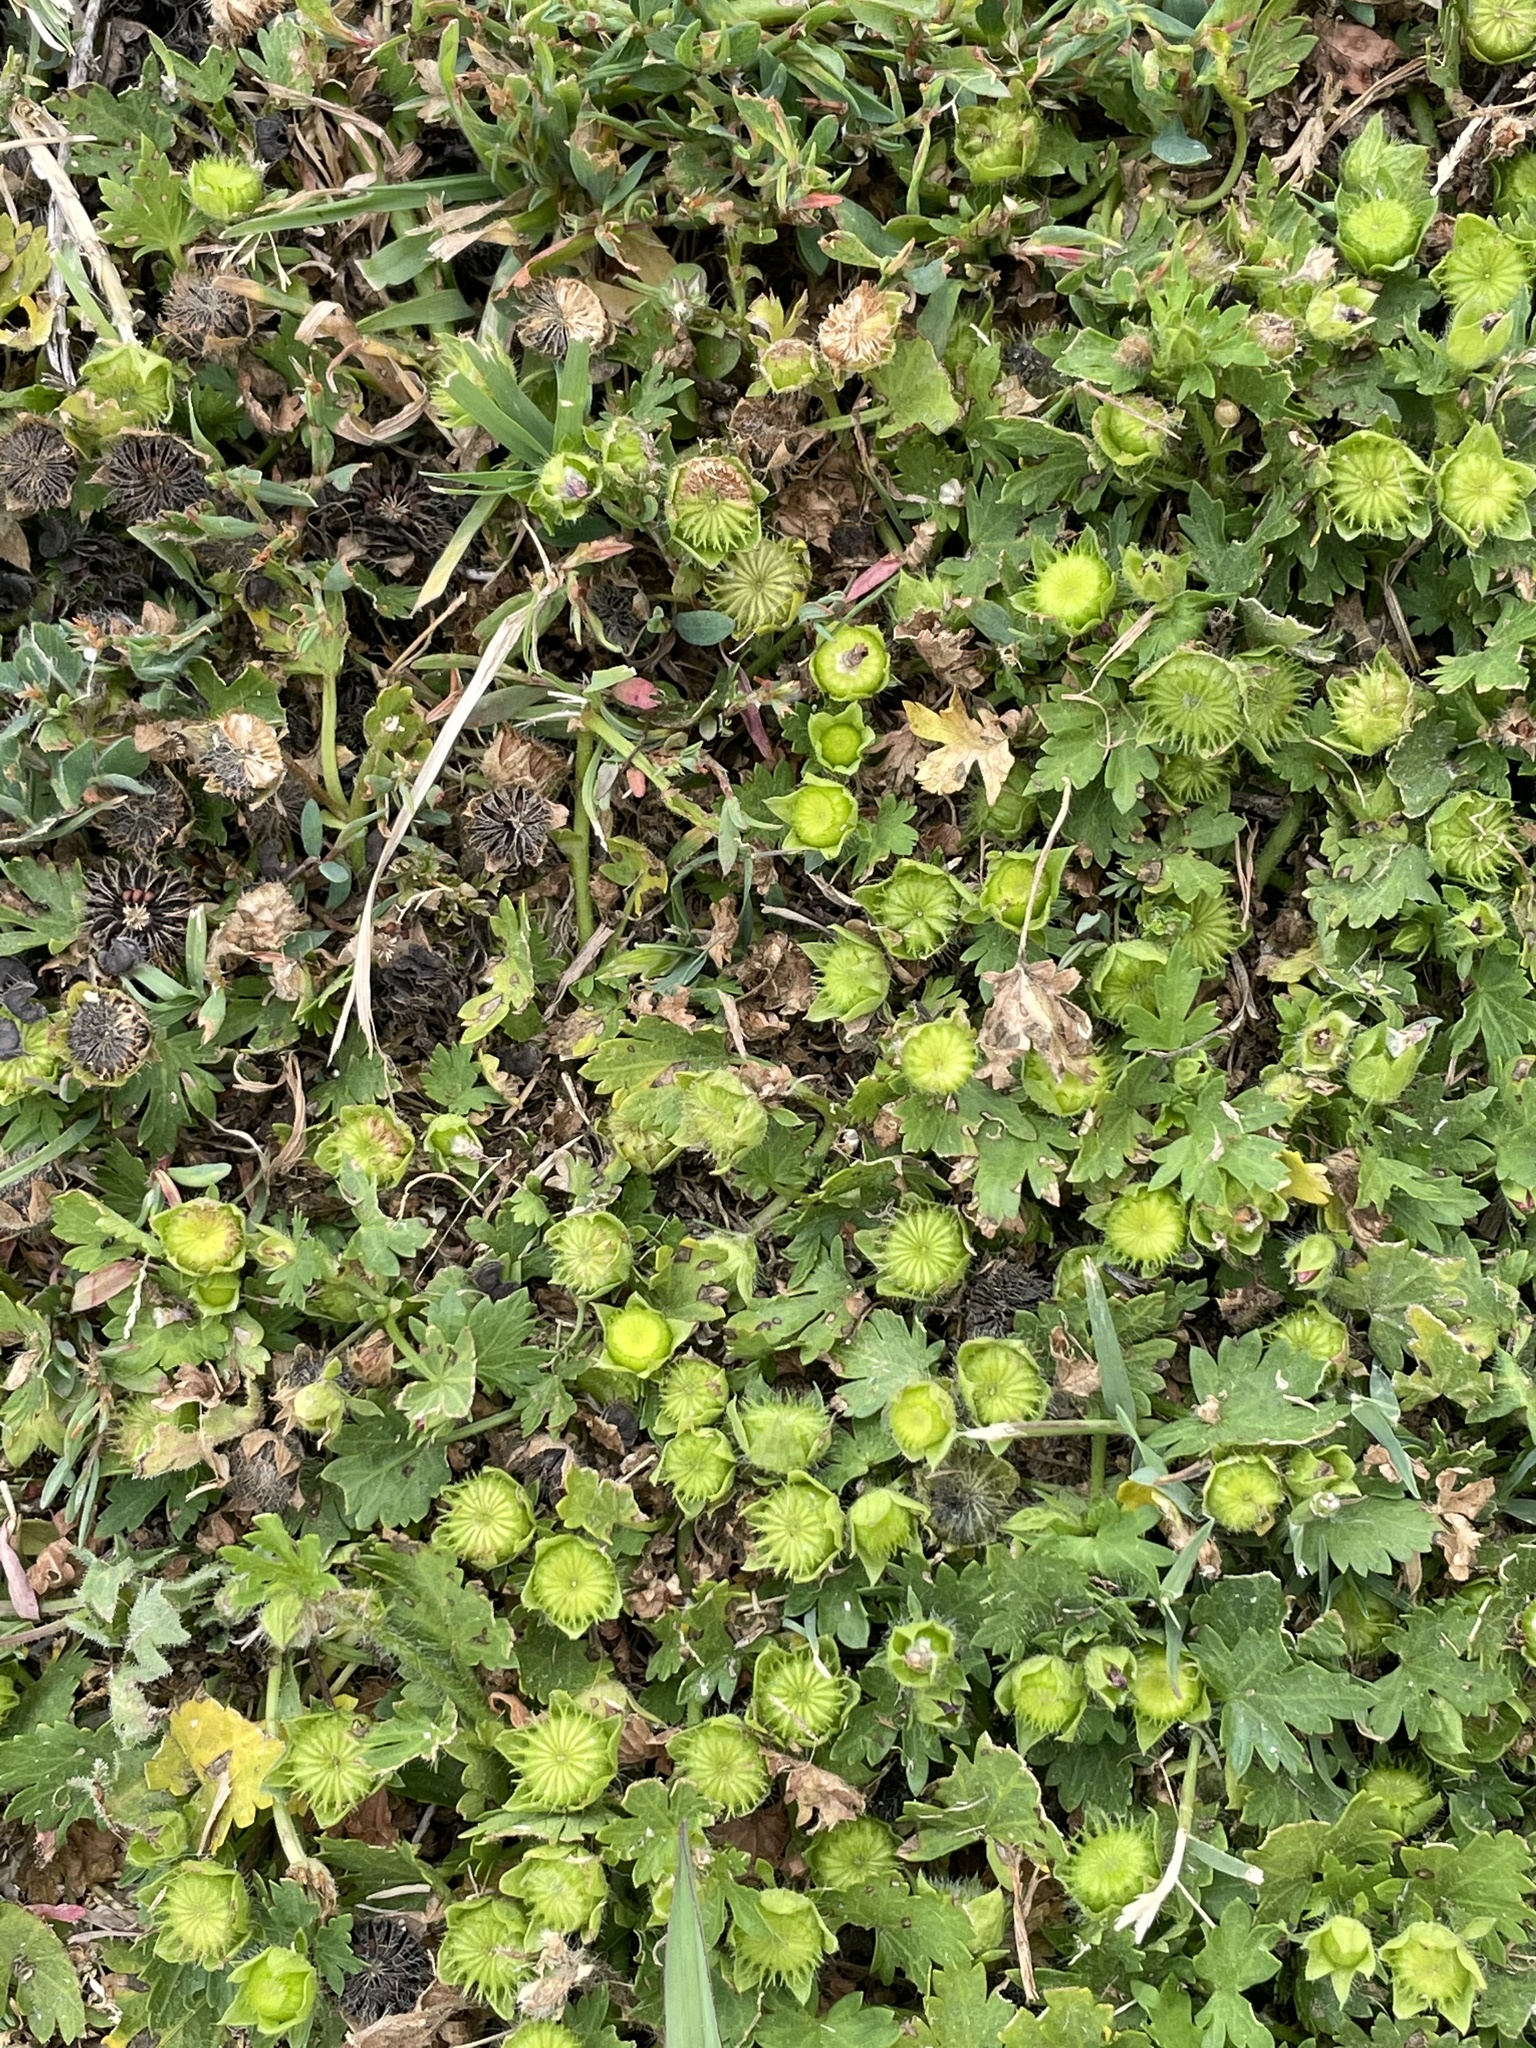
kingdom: Plantae
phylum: Tracheophyta
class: Magnoliopsida
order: Malvales
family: Malvaceae
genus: Modiola
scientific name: Modiola caroliniana
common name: Carolina bristlemallow
